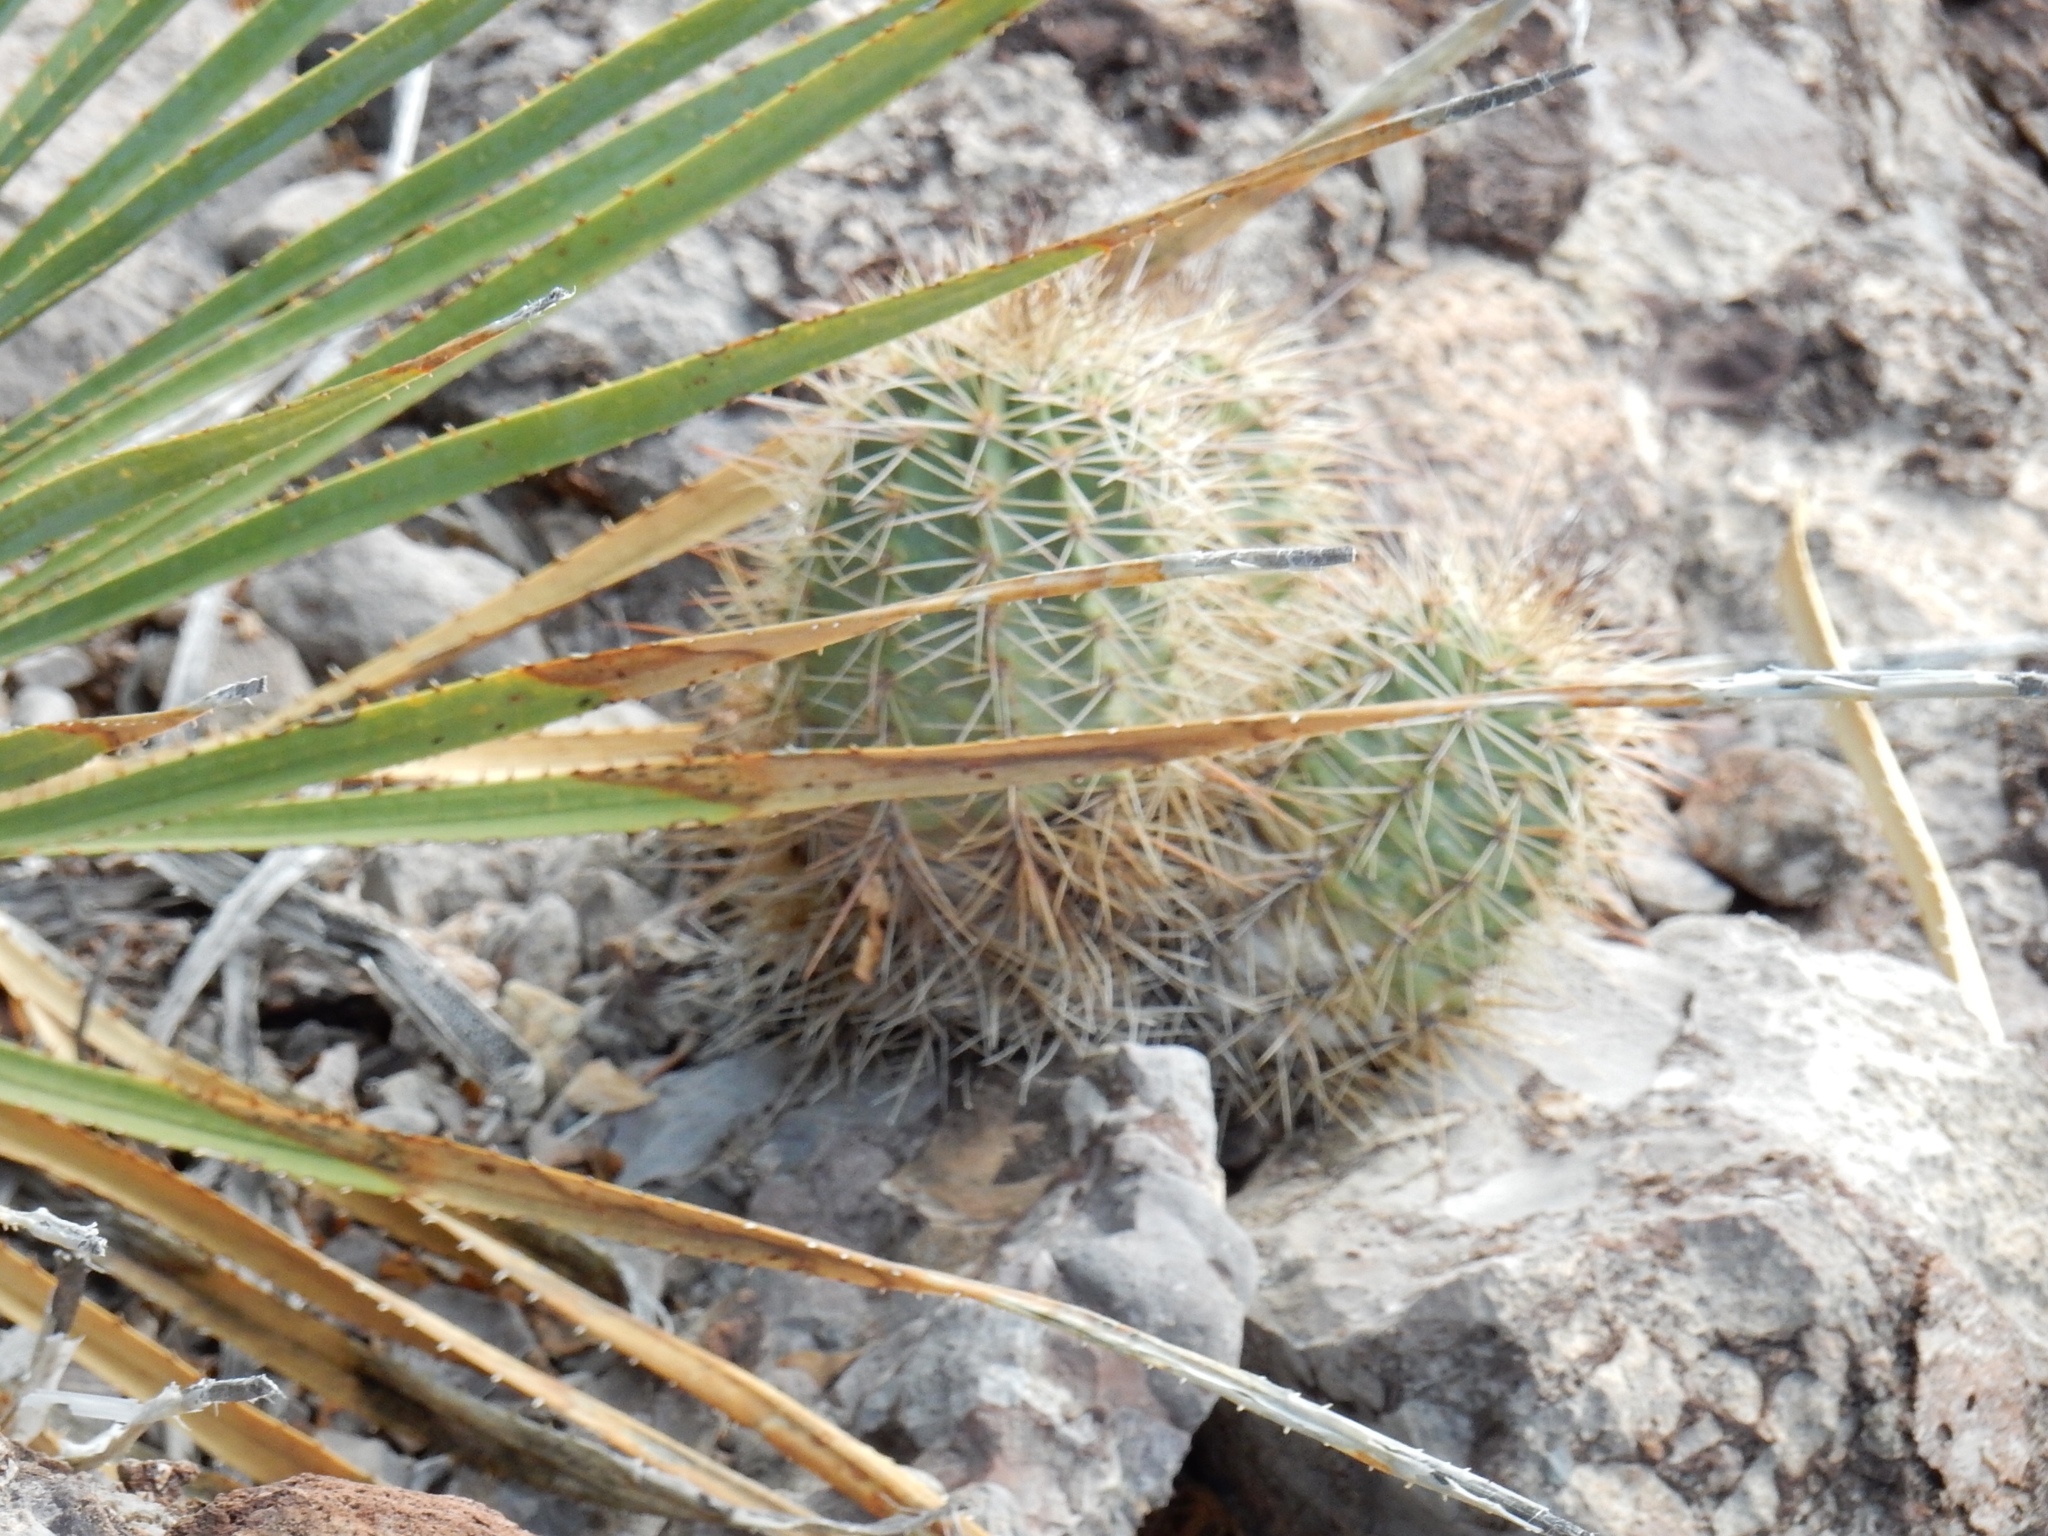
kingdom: Plantae
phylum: Tracheophyta
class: Magnoliopsida
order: Caryophyllales
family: Cactaceae
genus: Echinocereus
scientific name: Echinocereus coccineus
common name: Scarlet hedgehog cactus
